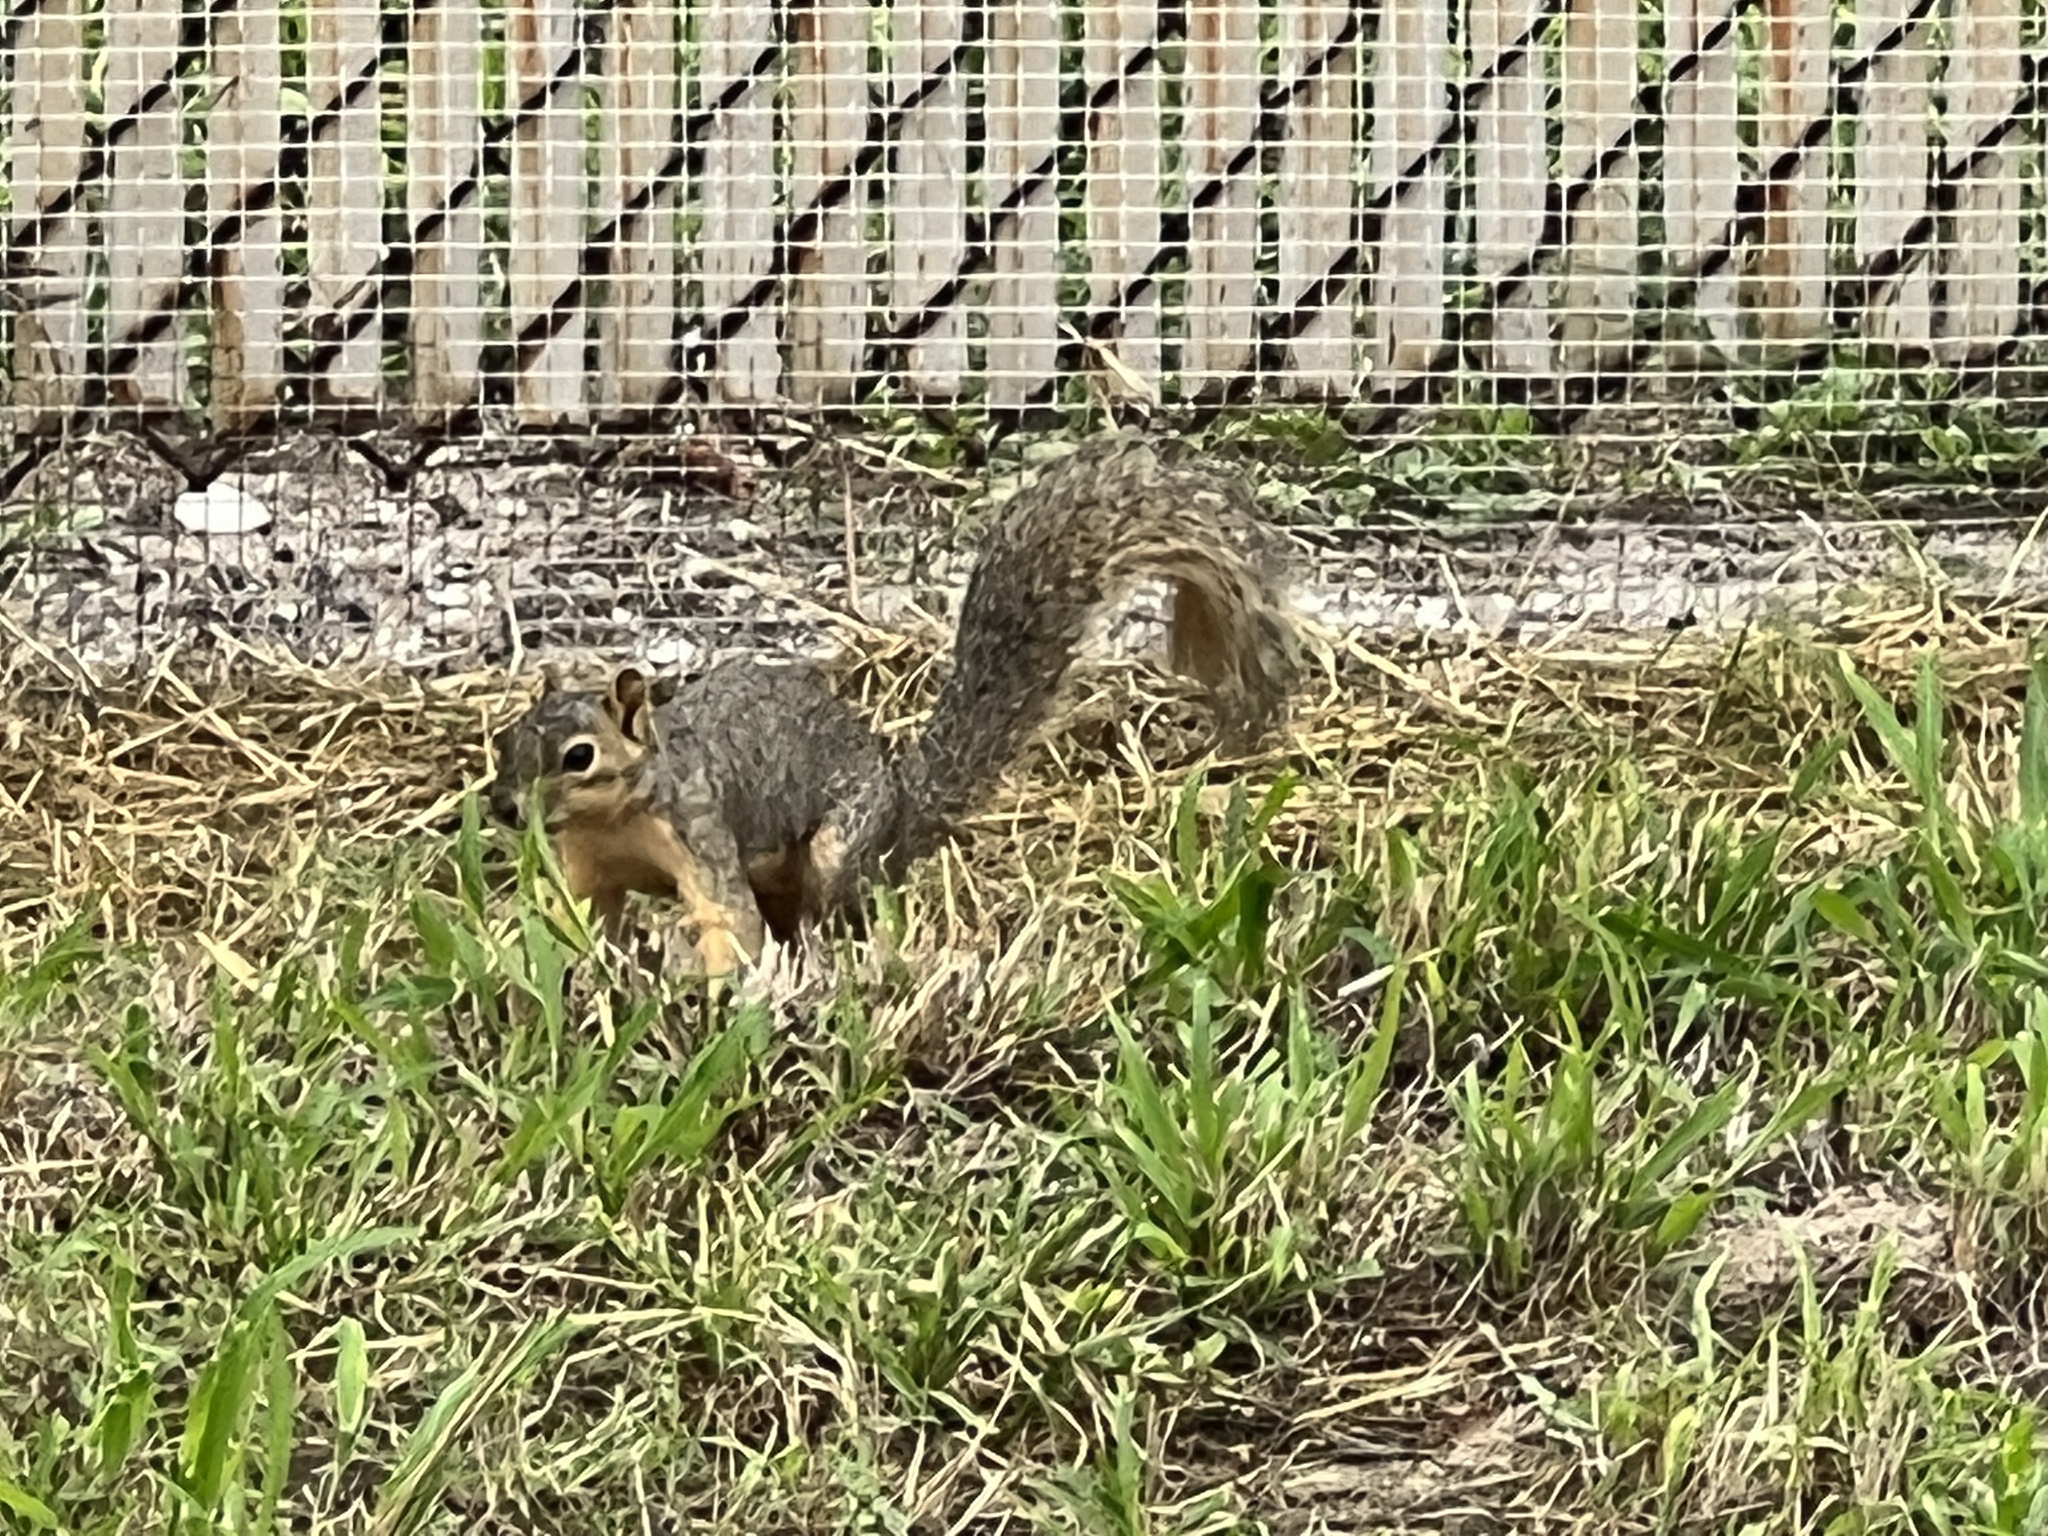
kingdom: Animalia
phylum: Chordata
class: Mammalia
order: Rodentia
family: Sciuridae
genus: Sciurus
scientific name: Sciurus niger
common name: Fox squirrel
